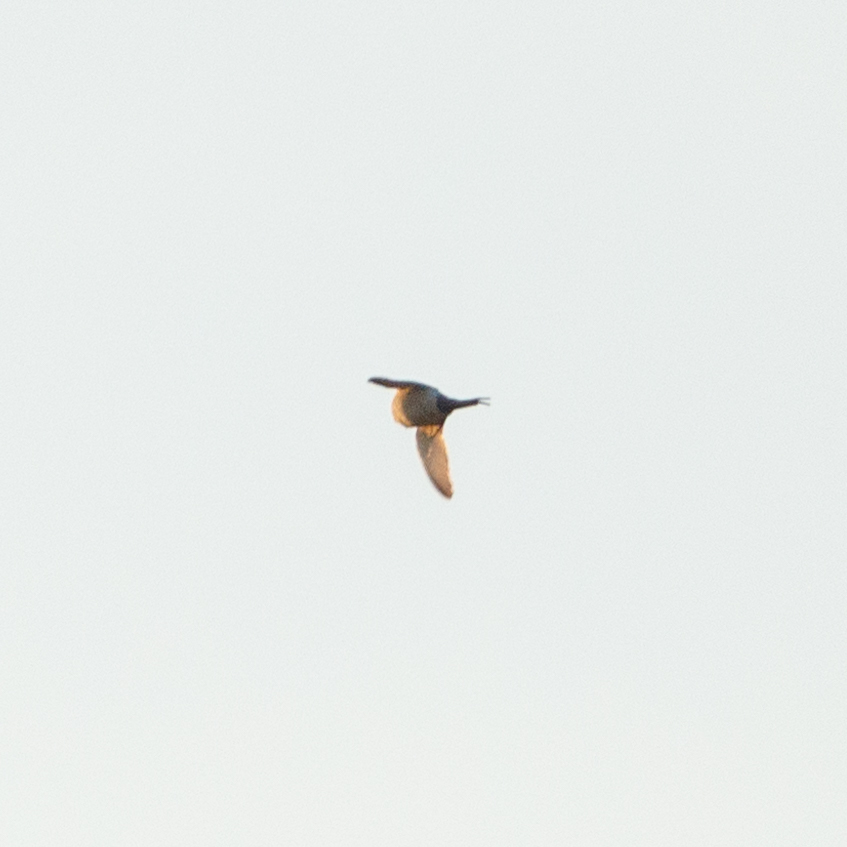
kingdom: Animalia
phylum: Chordata
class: Aves
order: Passeriformes
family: Hirundinidae
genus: Cecropis
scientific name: Cecropis daurica
